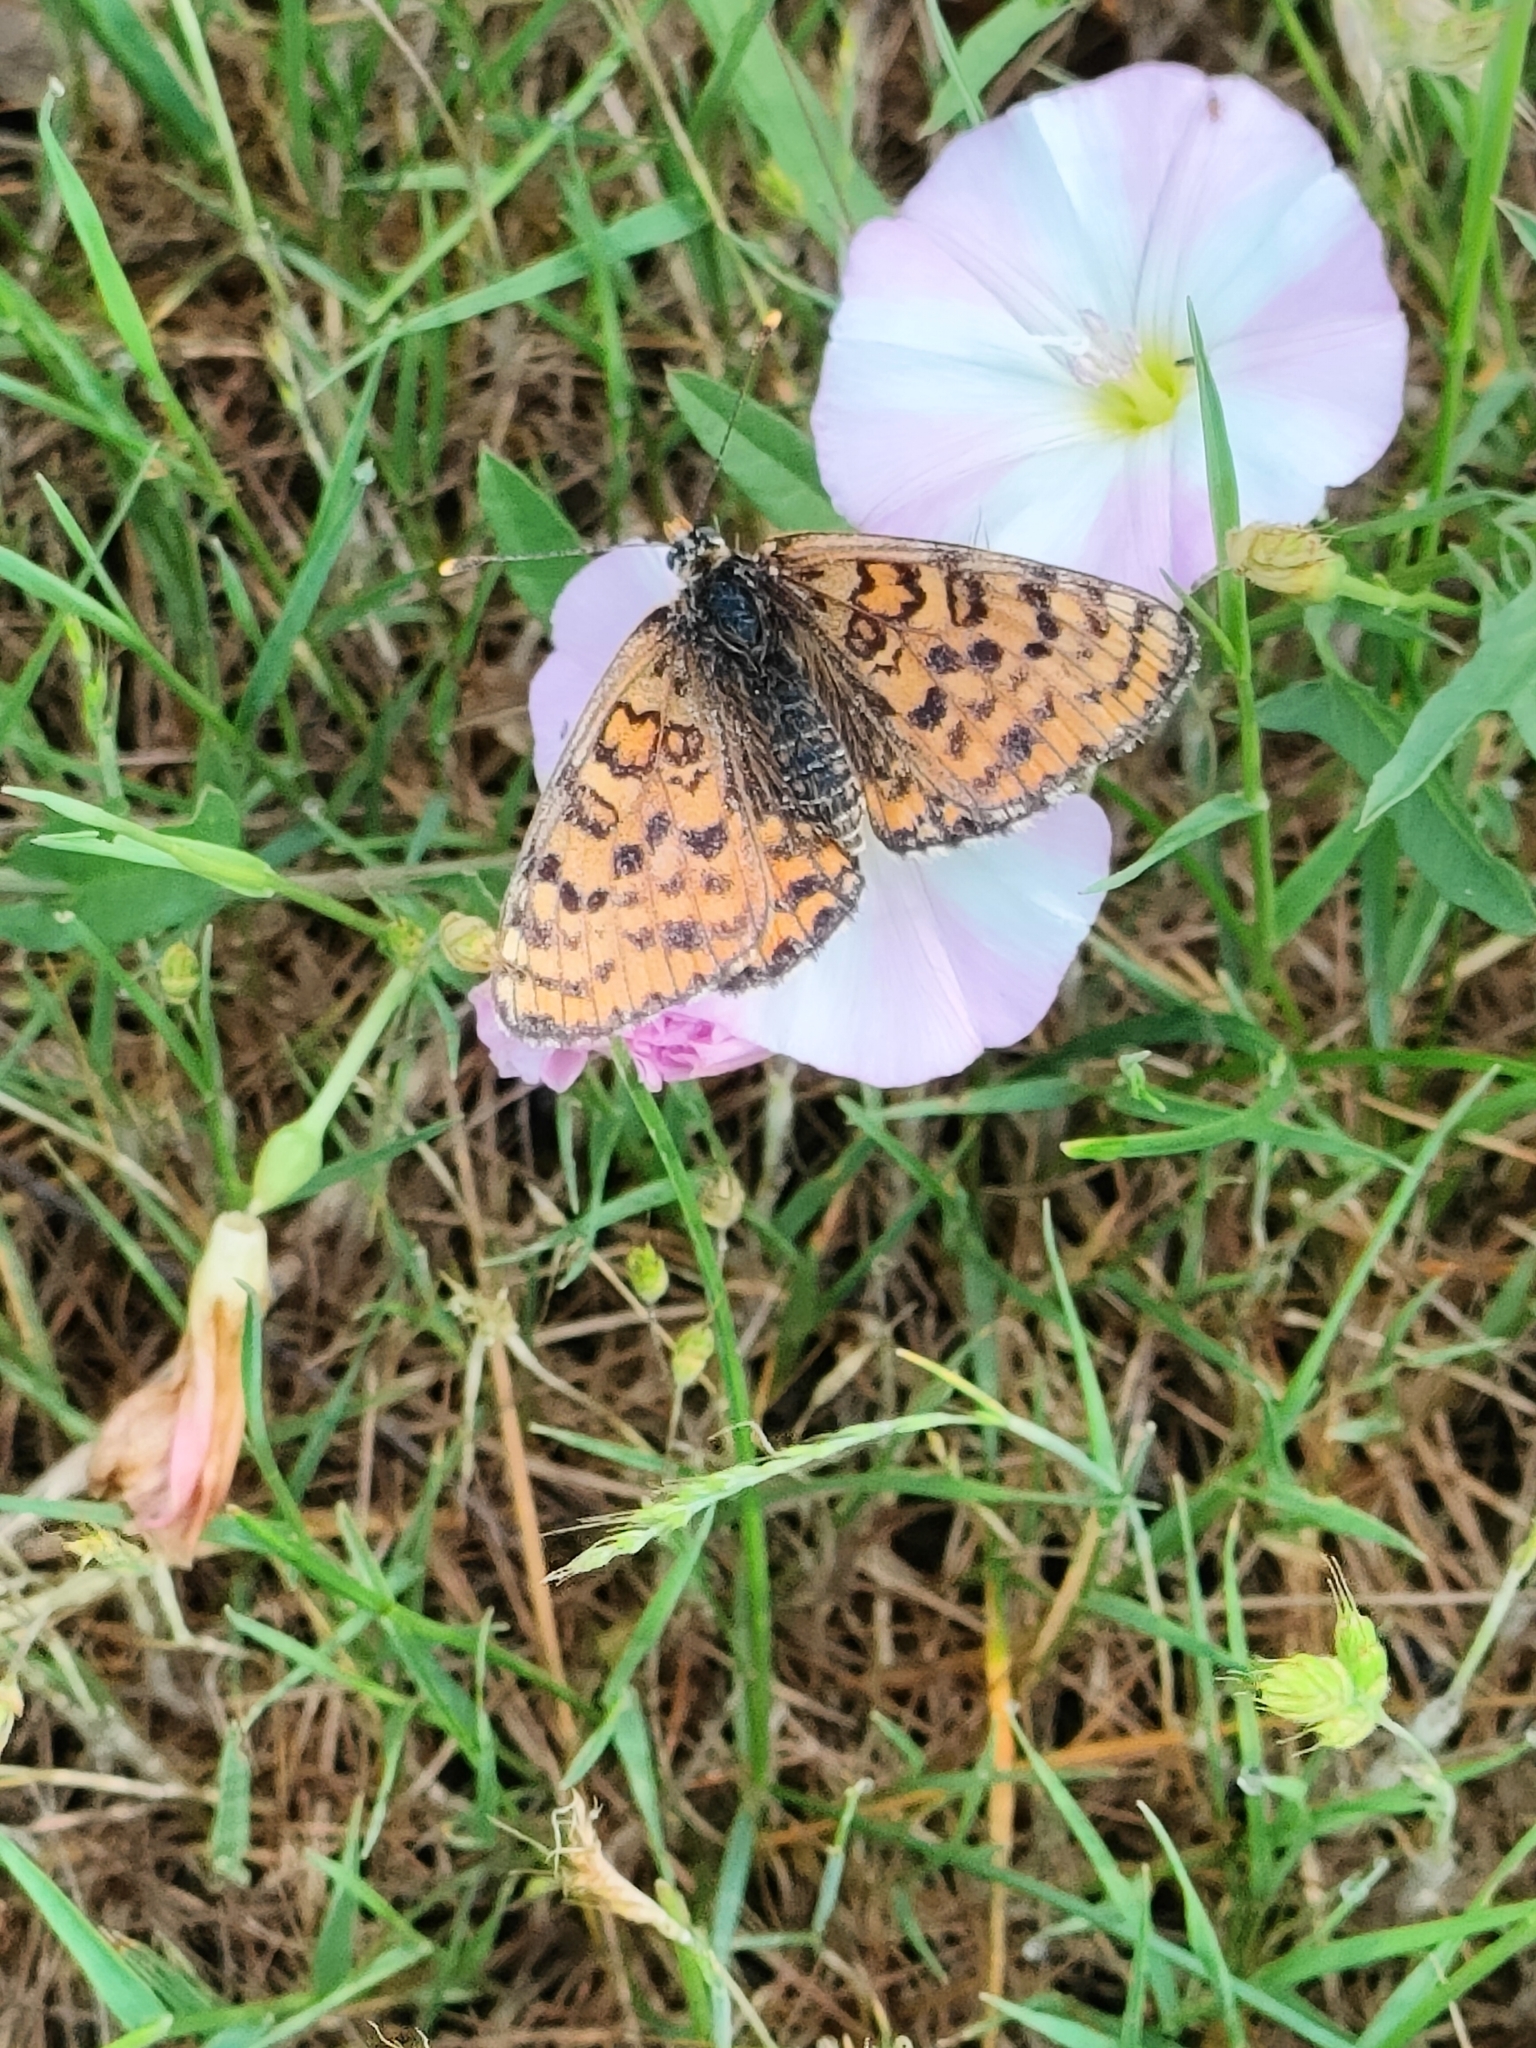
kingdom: Animalia
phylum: Arthropoda
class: Insecta
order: Lepidoptera
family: Nymphalidae
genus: Melitaea
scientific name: Melitaea didyma
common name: Spotted fritillary
